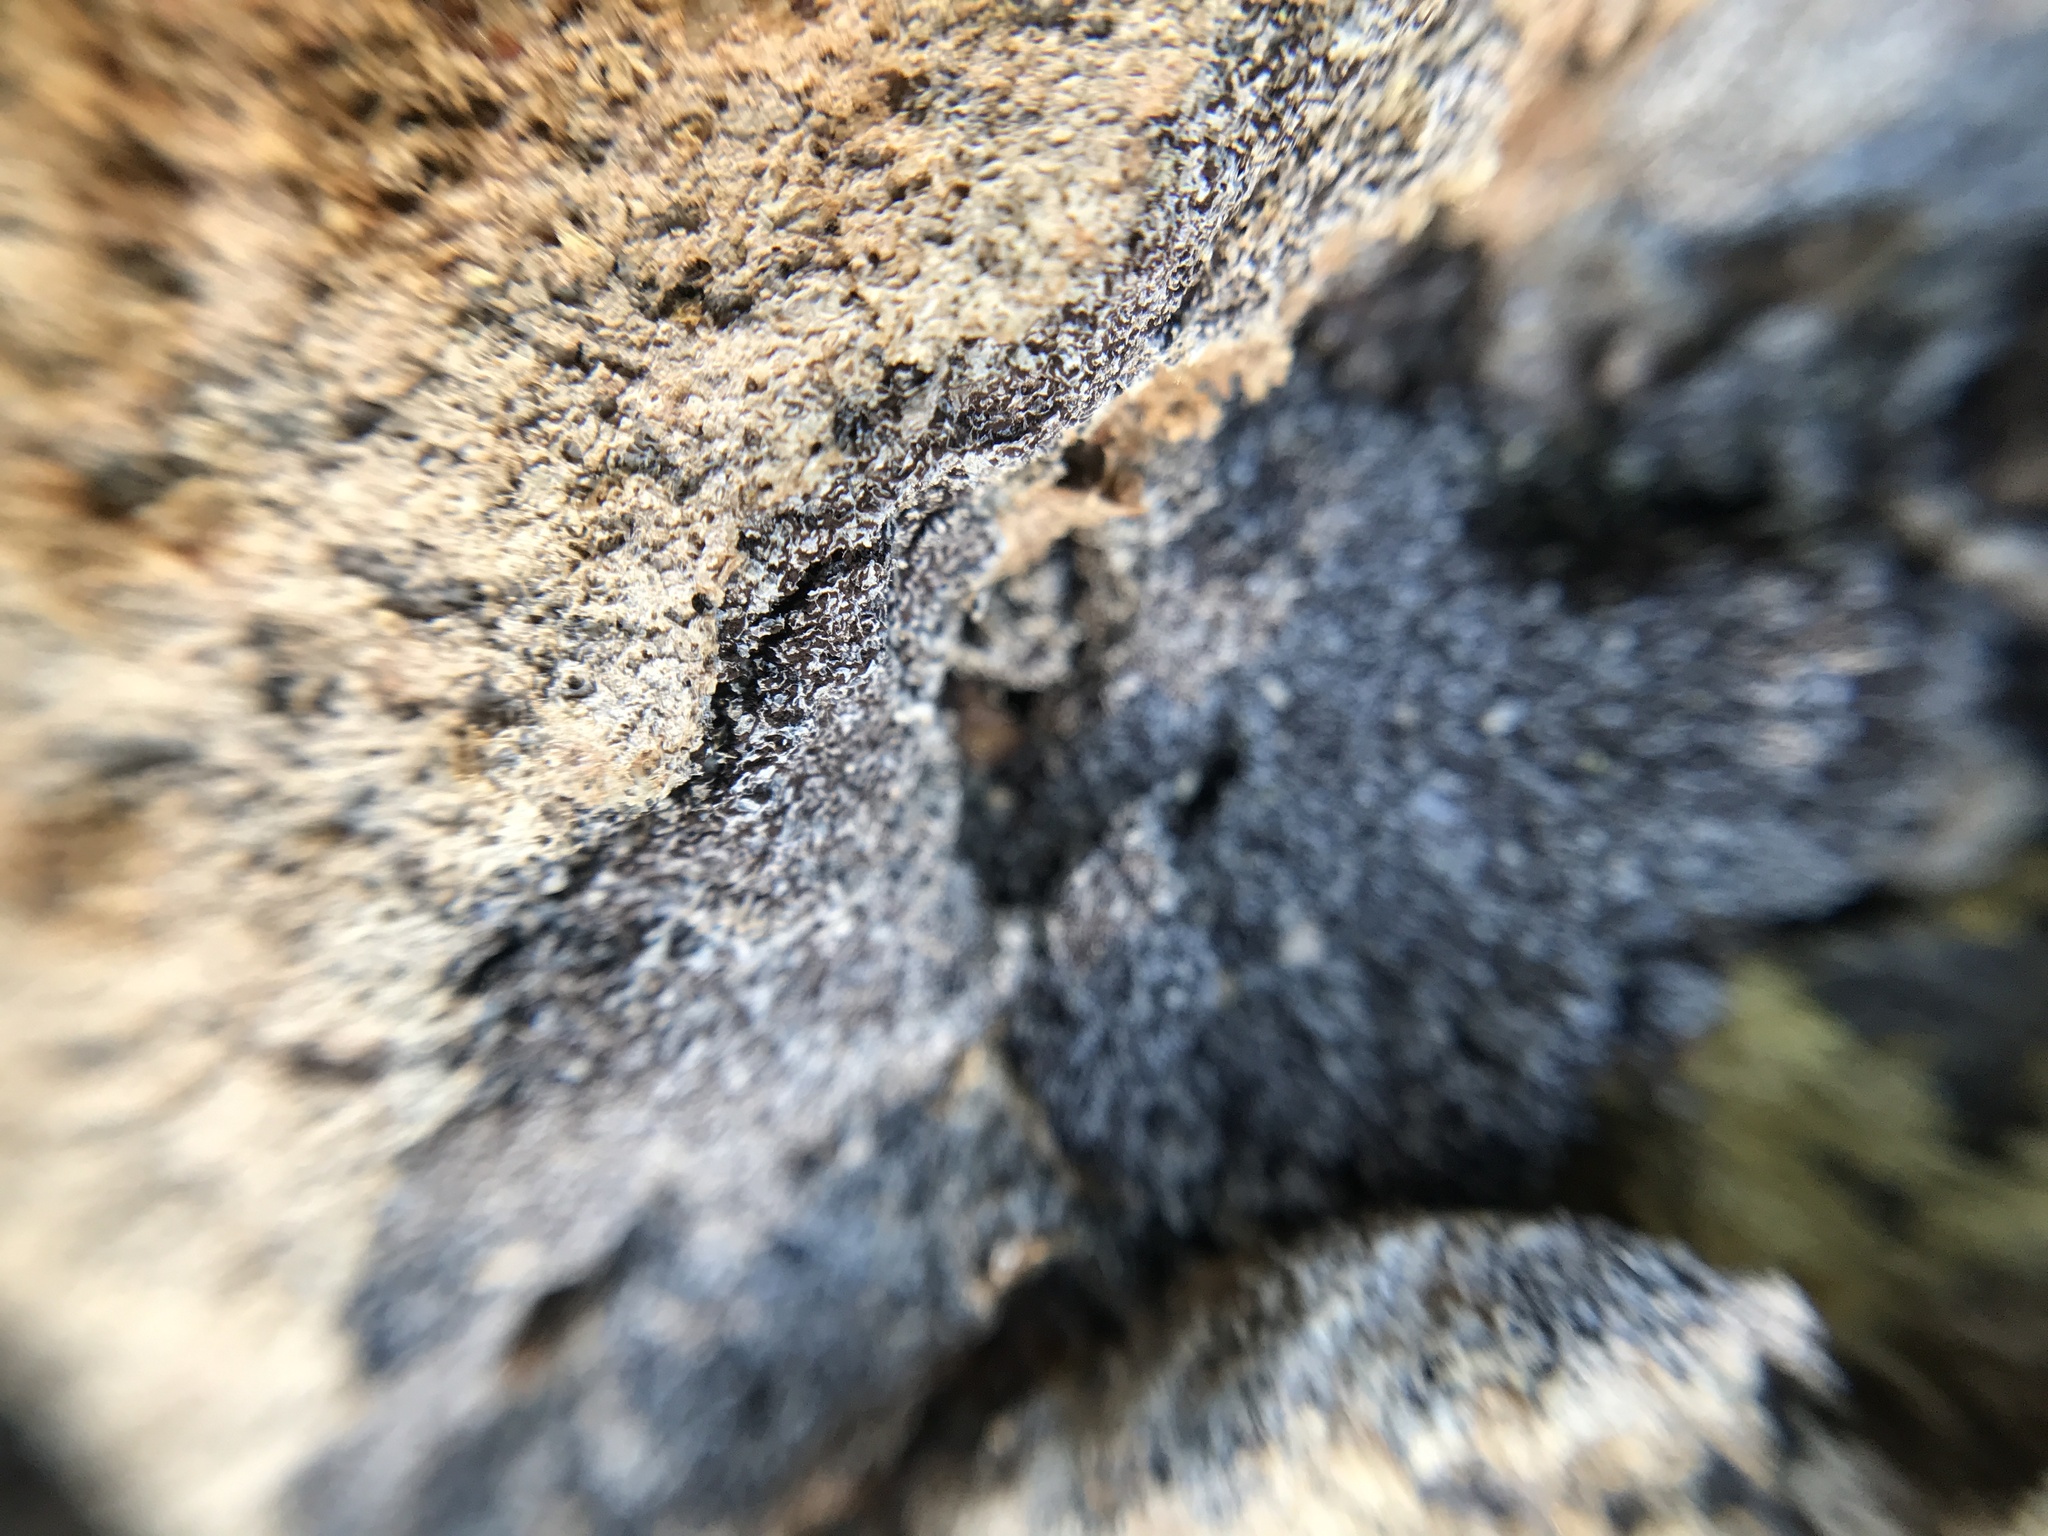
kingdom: Protozoa
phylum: Mycetozoa
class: Myxomycetes
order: Physarales
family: Physaraceae
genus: Fuligo
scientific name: Fuligo septica
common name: Dog vomit slime mold
